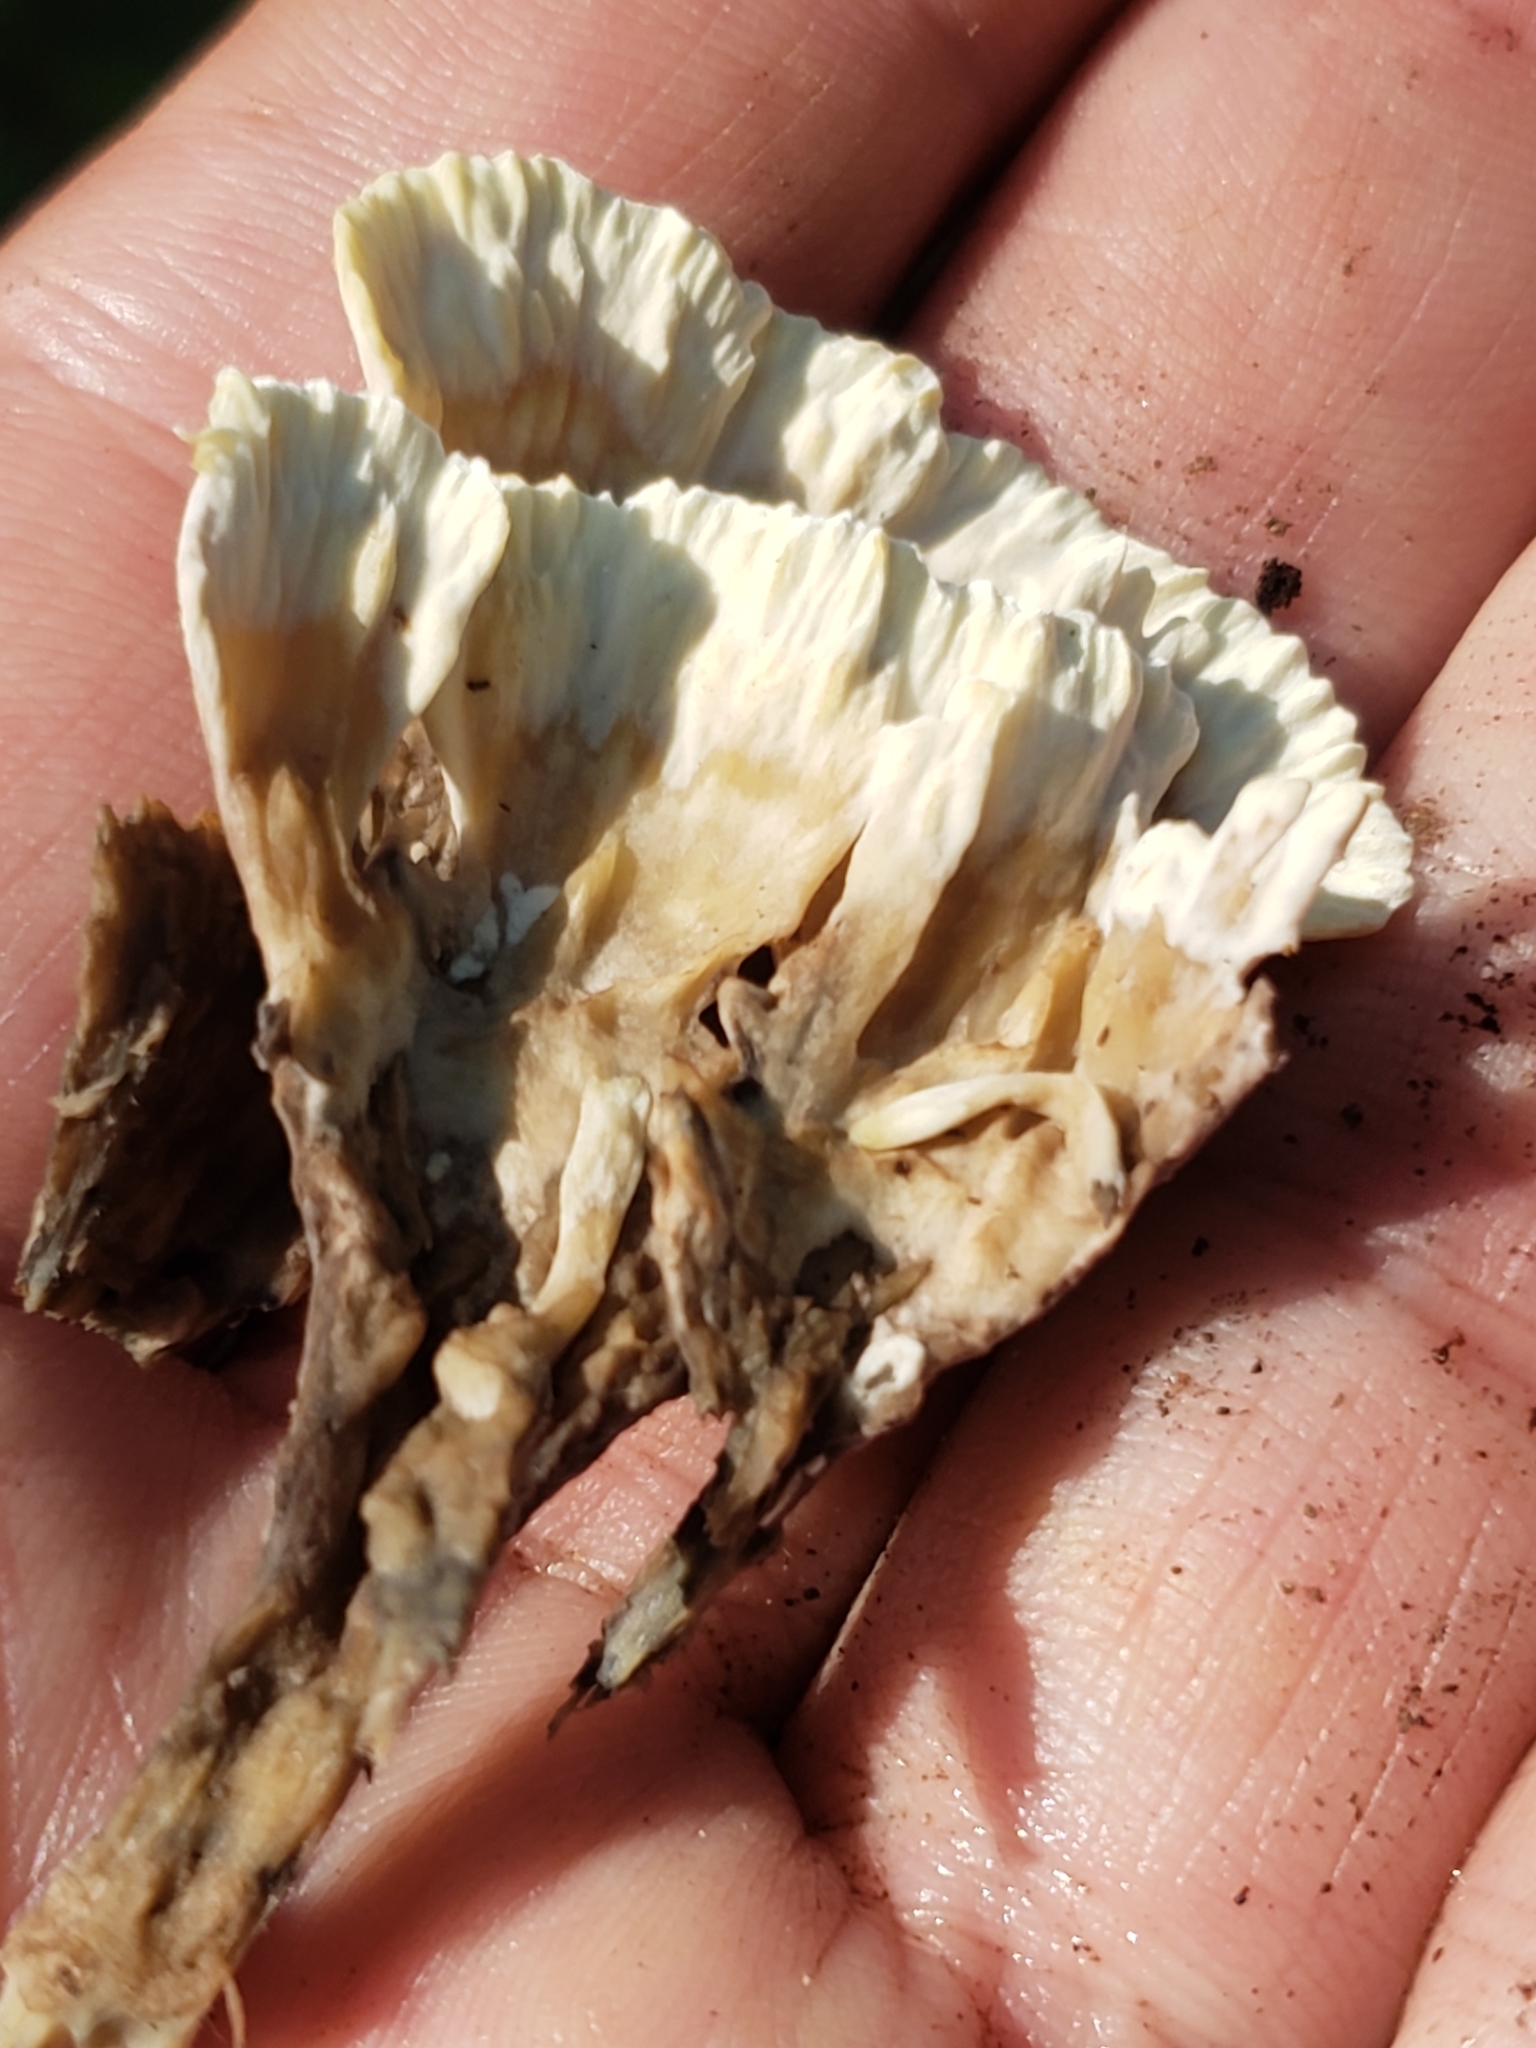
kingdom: Fungi
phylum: Basidiomycota
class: Agaricomycetes
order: Thelephorales
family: Thelephoraceae
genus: Thelephora
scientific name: Thelephora vialis
